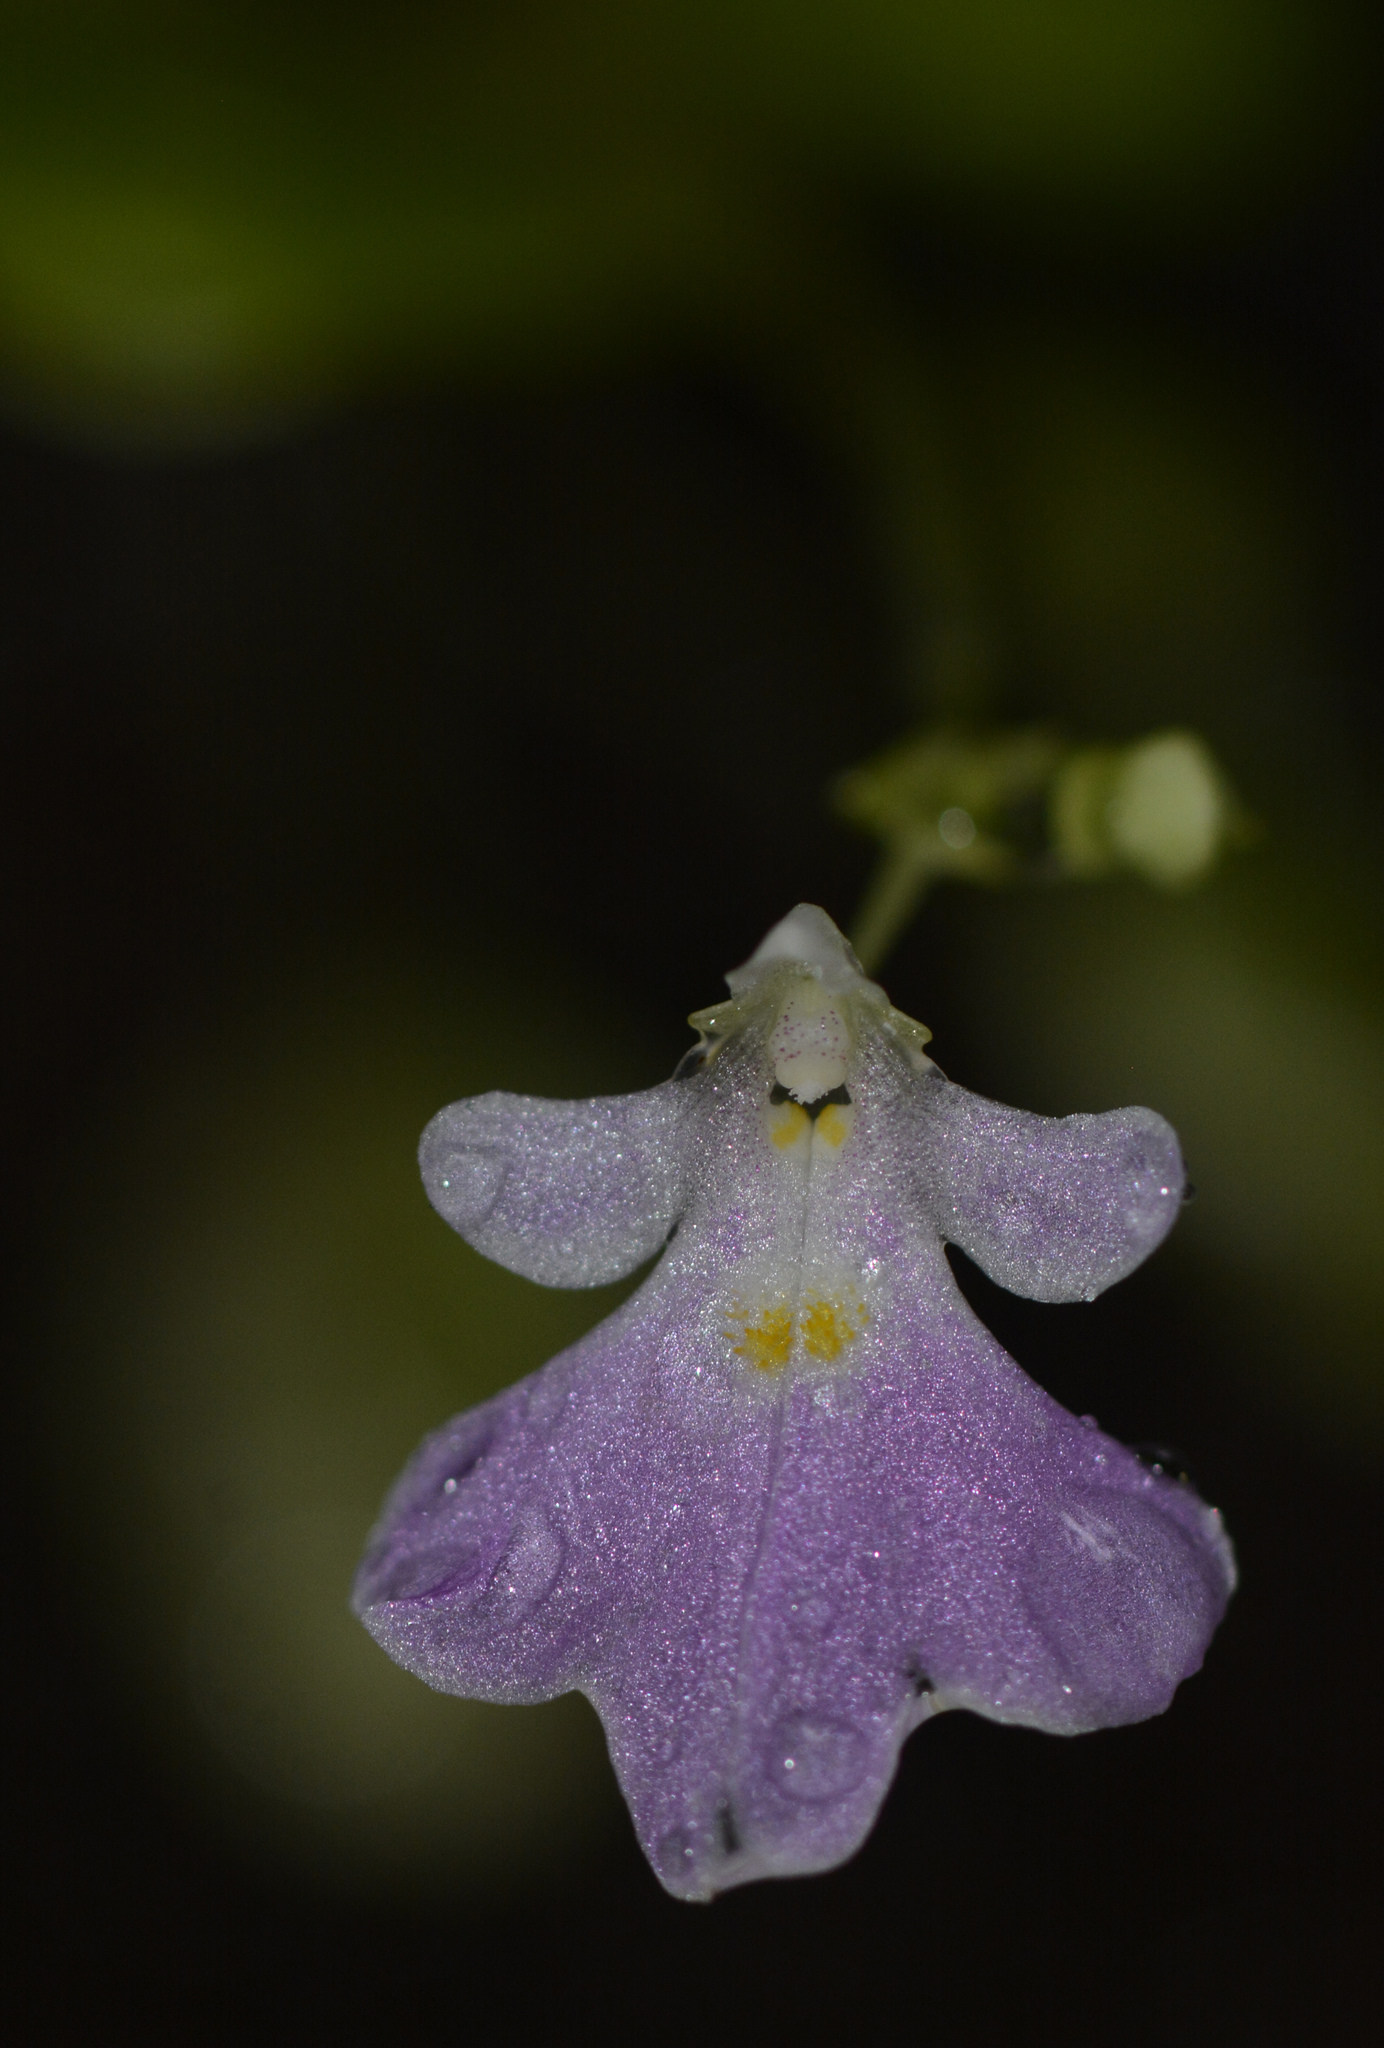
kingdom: Plantae
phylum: Tracheophyta
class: Magnoliopsida
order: Ericales
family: Balsaminaceae
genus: Impatiens
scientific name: Impatiens agumbeana
